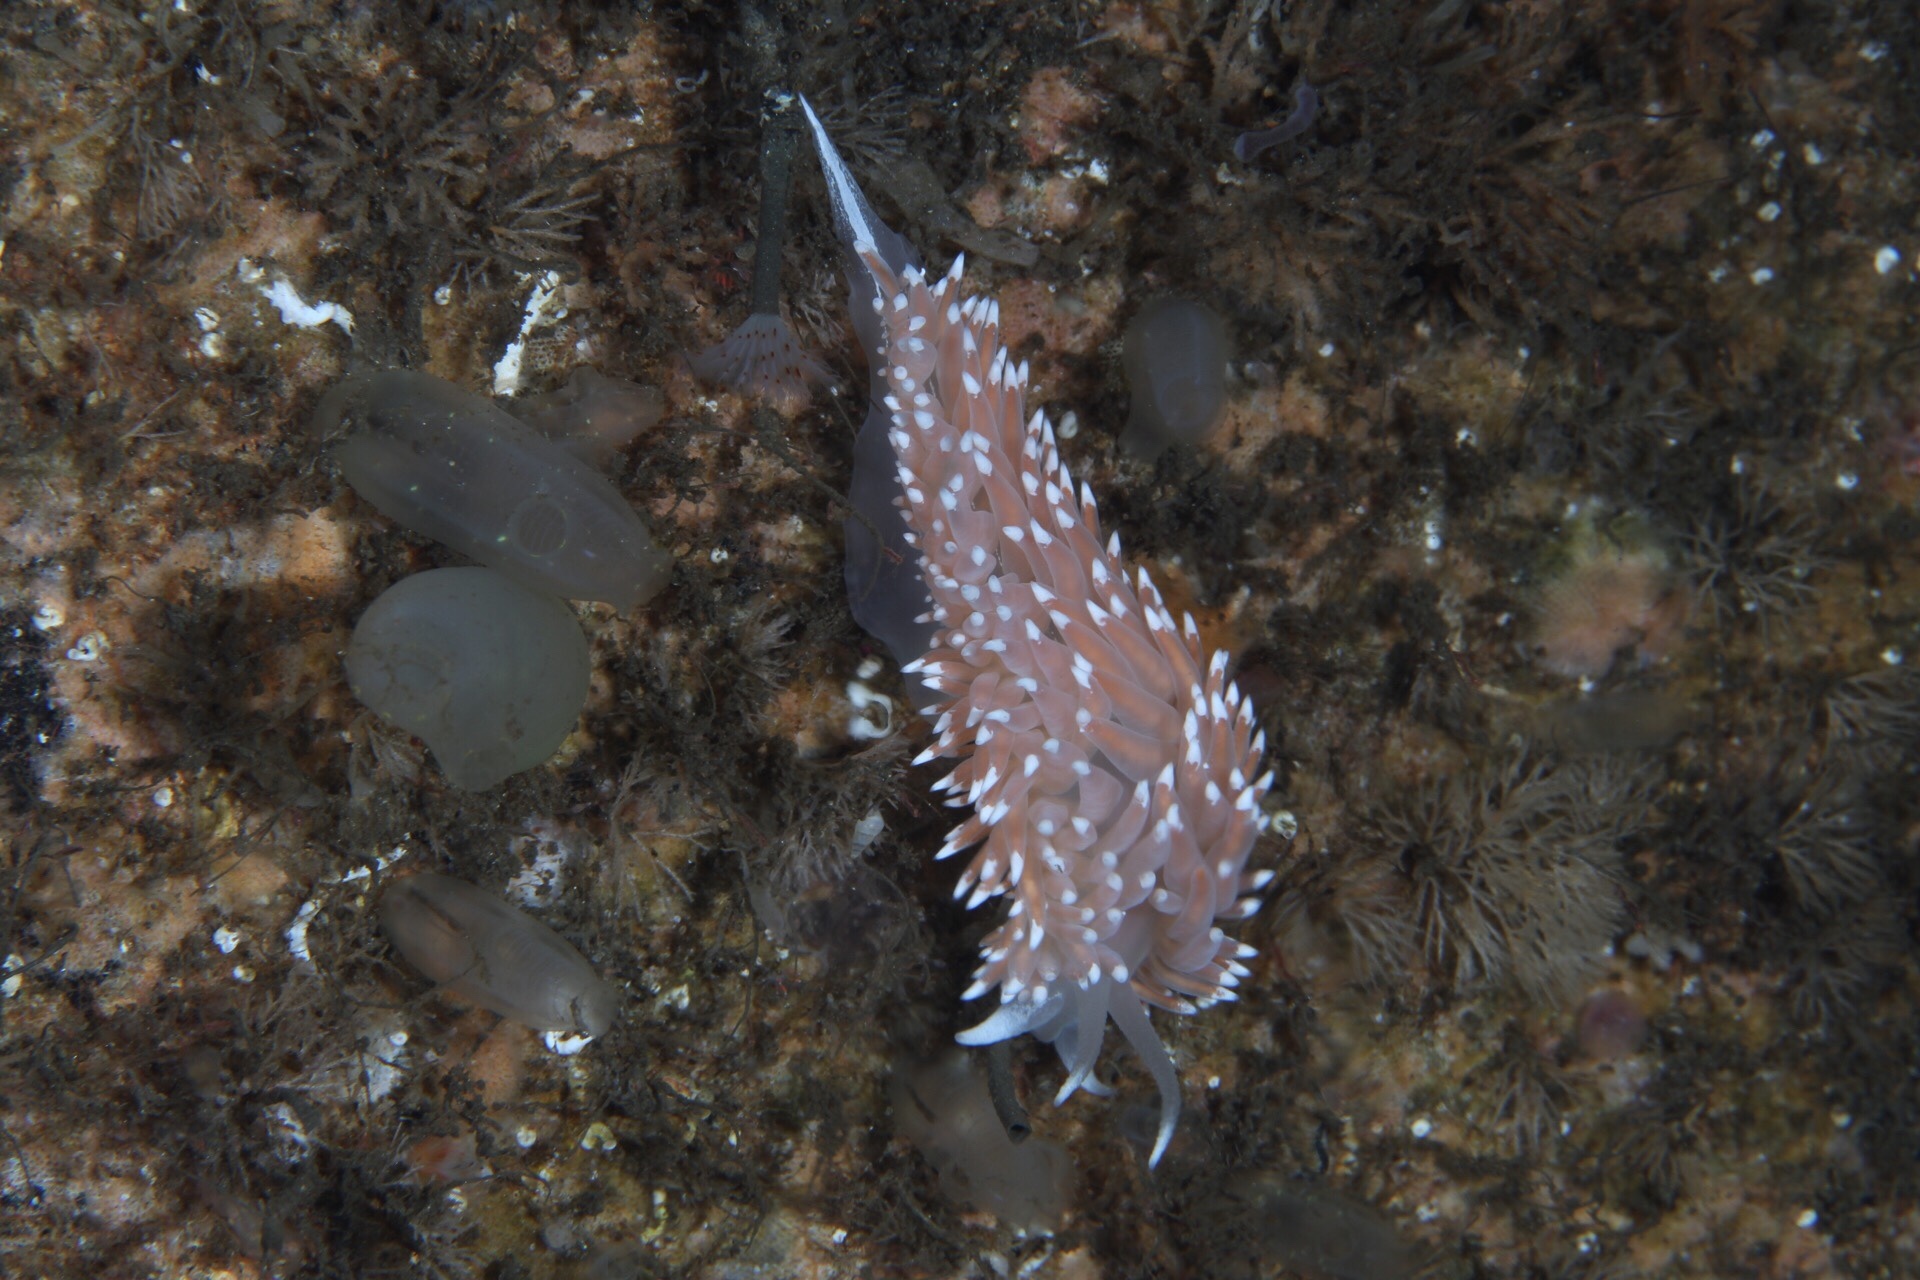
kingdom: Animalia
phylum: Mollusca
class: Gastropoda
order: Nudibranchia
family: Coryphellidae
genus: Coryphella
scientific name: Coryphella nobilis
